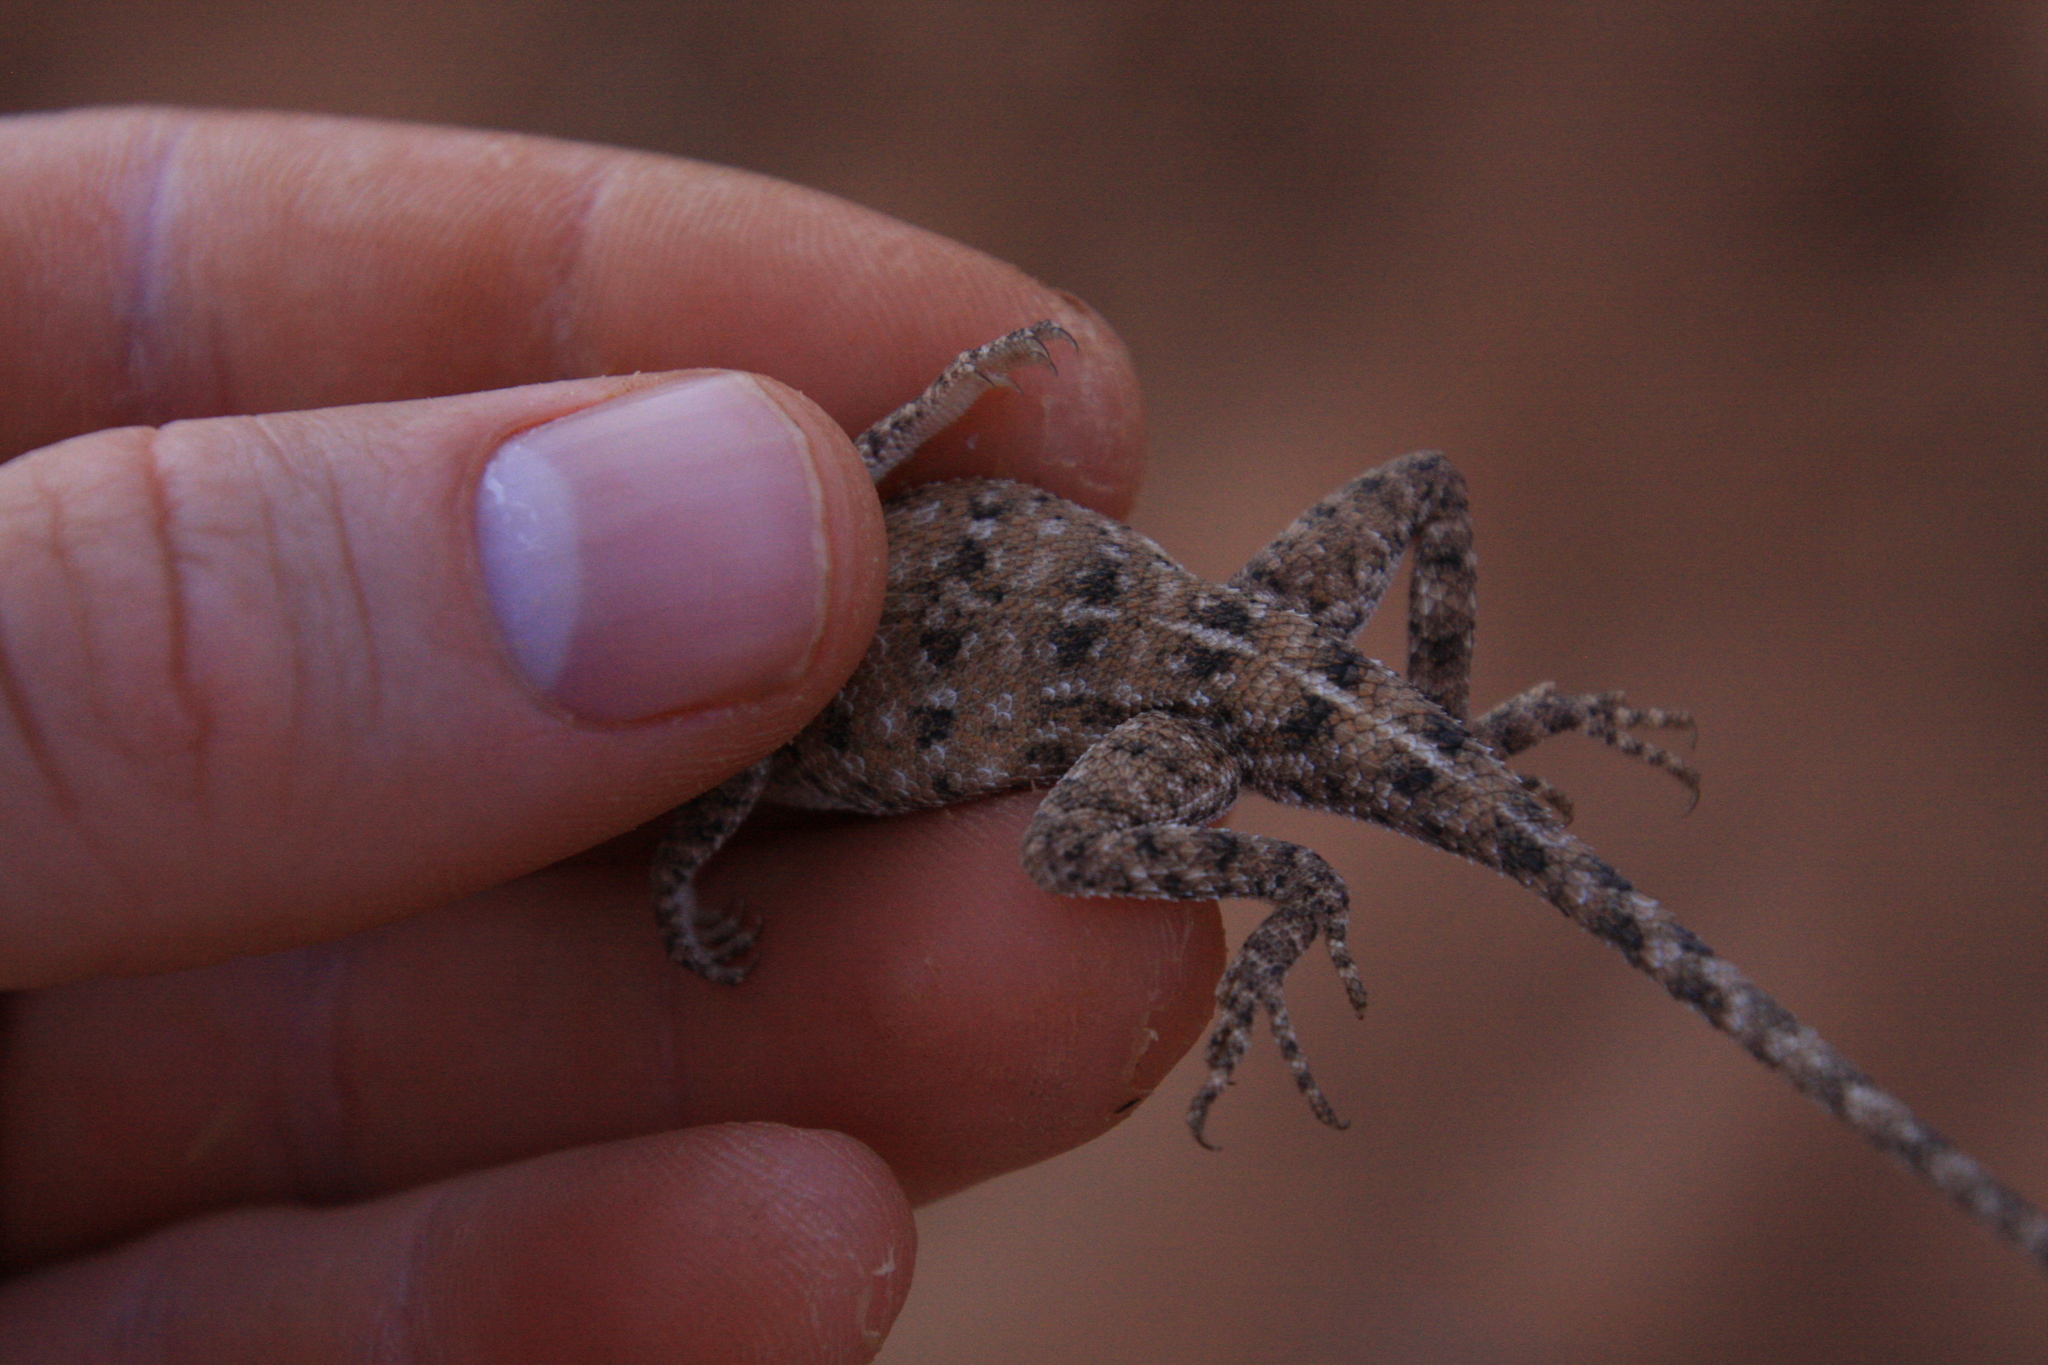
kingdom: Animalia
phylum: Chordata
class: Squamata
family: Agamidae
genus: Agama
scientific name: Agama boueti
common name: Mali agama
